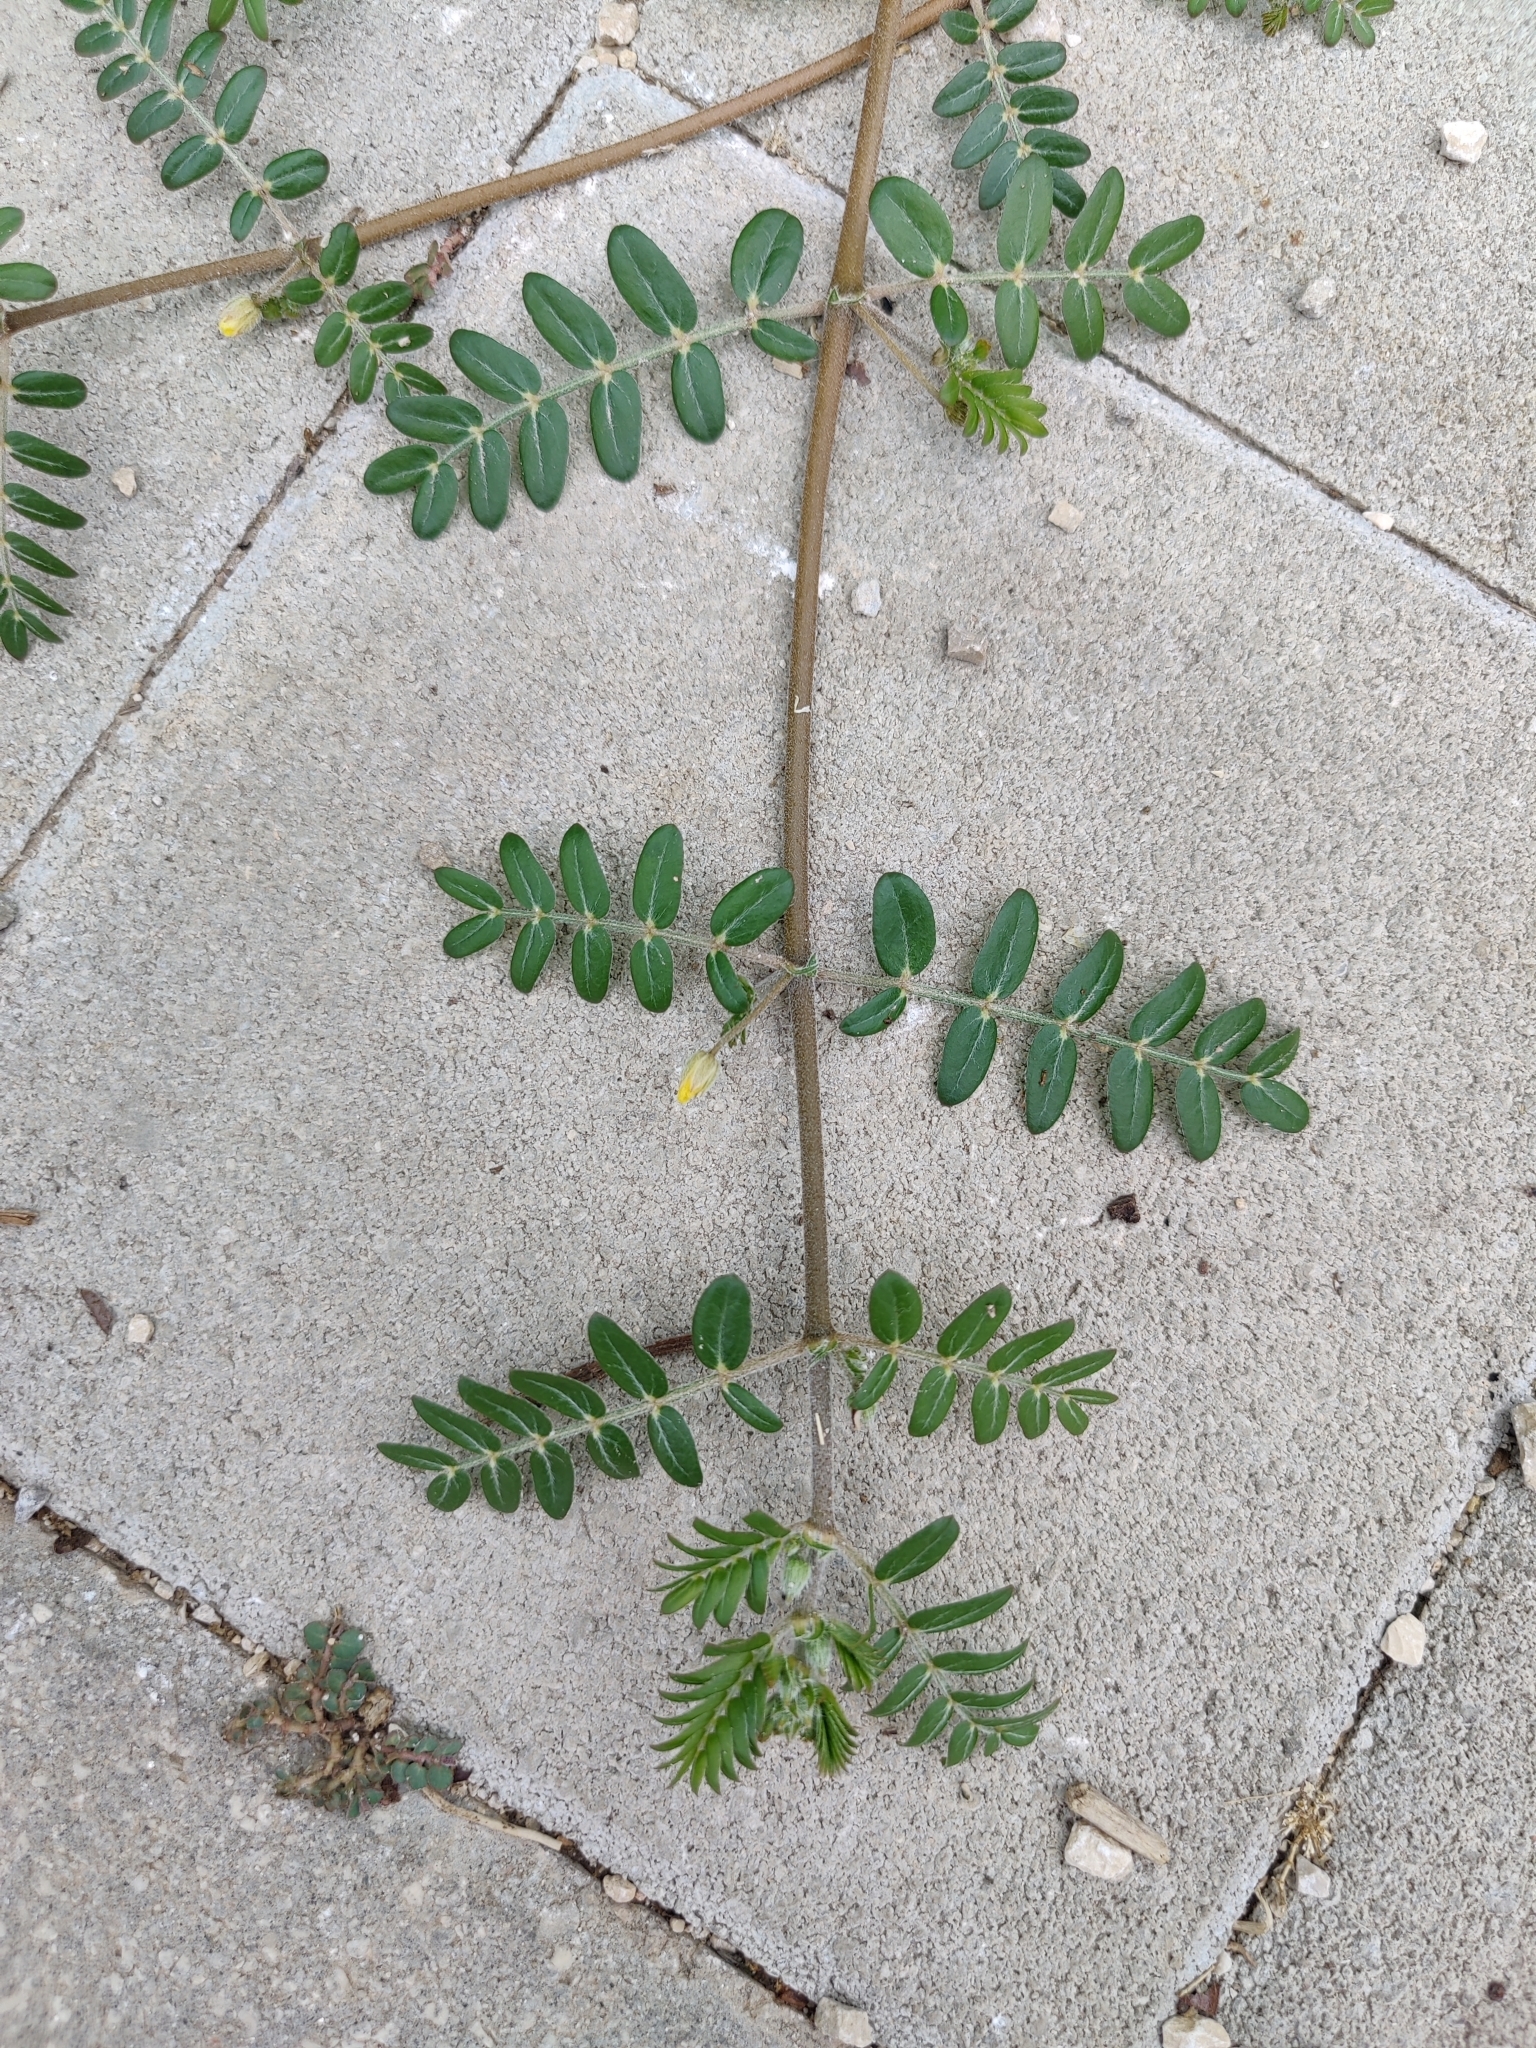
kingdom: Plantae
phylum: Tracheophyta
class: Magnoliopsida
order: Zygophyllales
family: Zygophyllaceae
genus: Tribulus
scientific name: Tribulus terrestris
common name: Puncturevine
